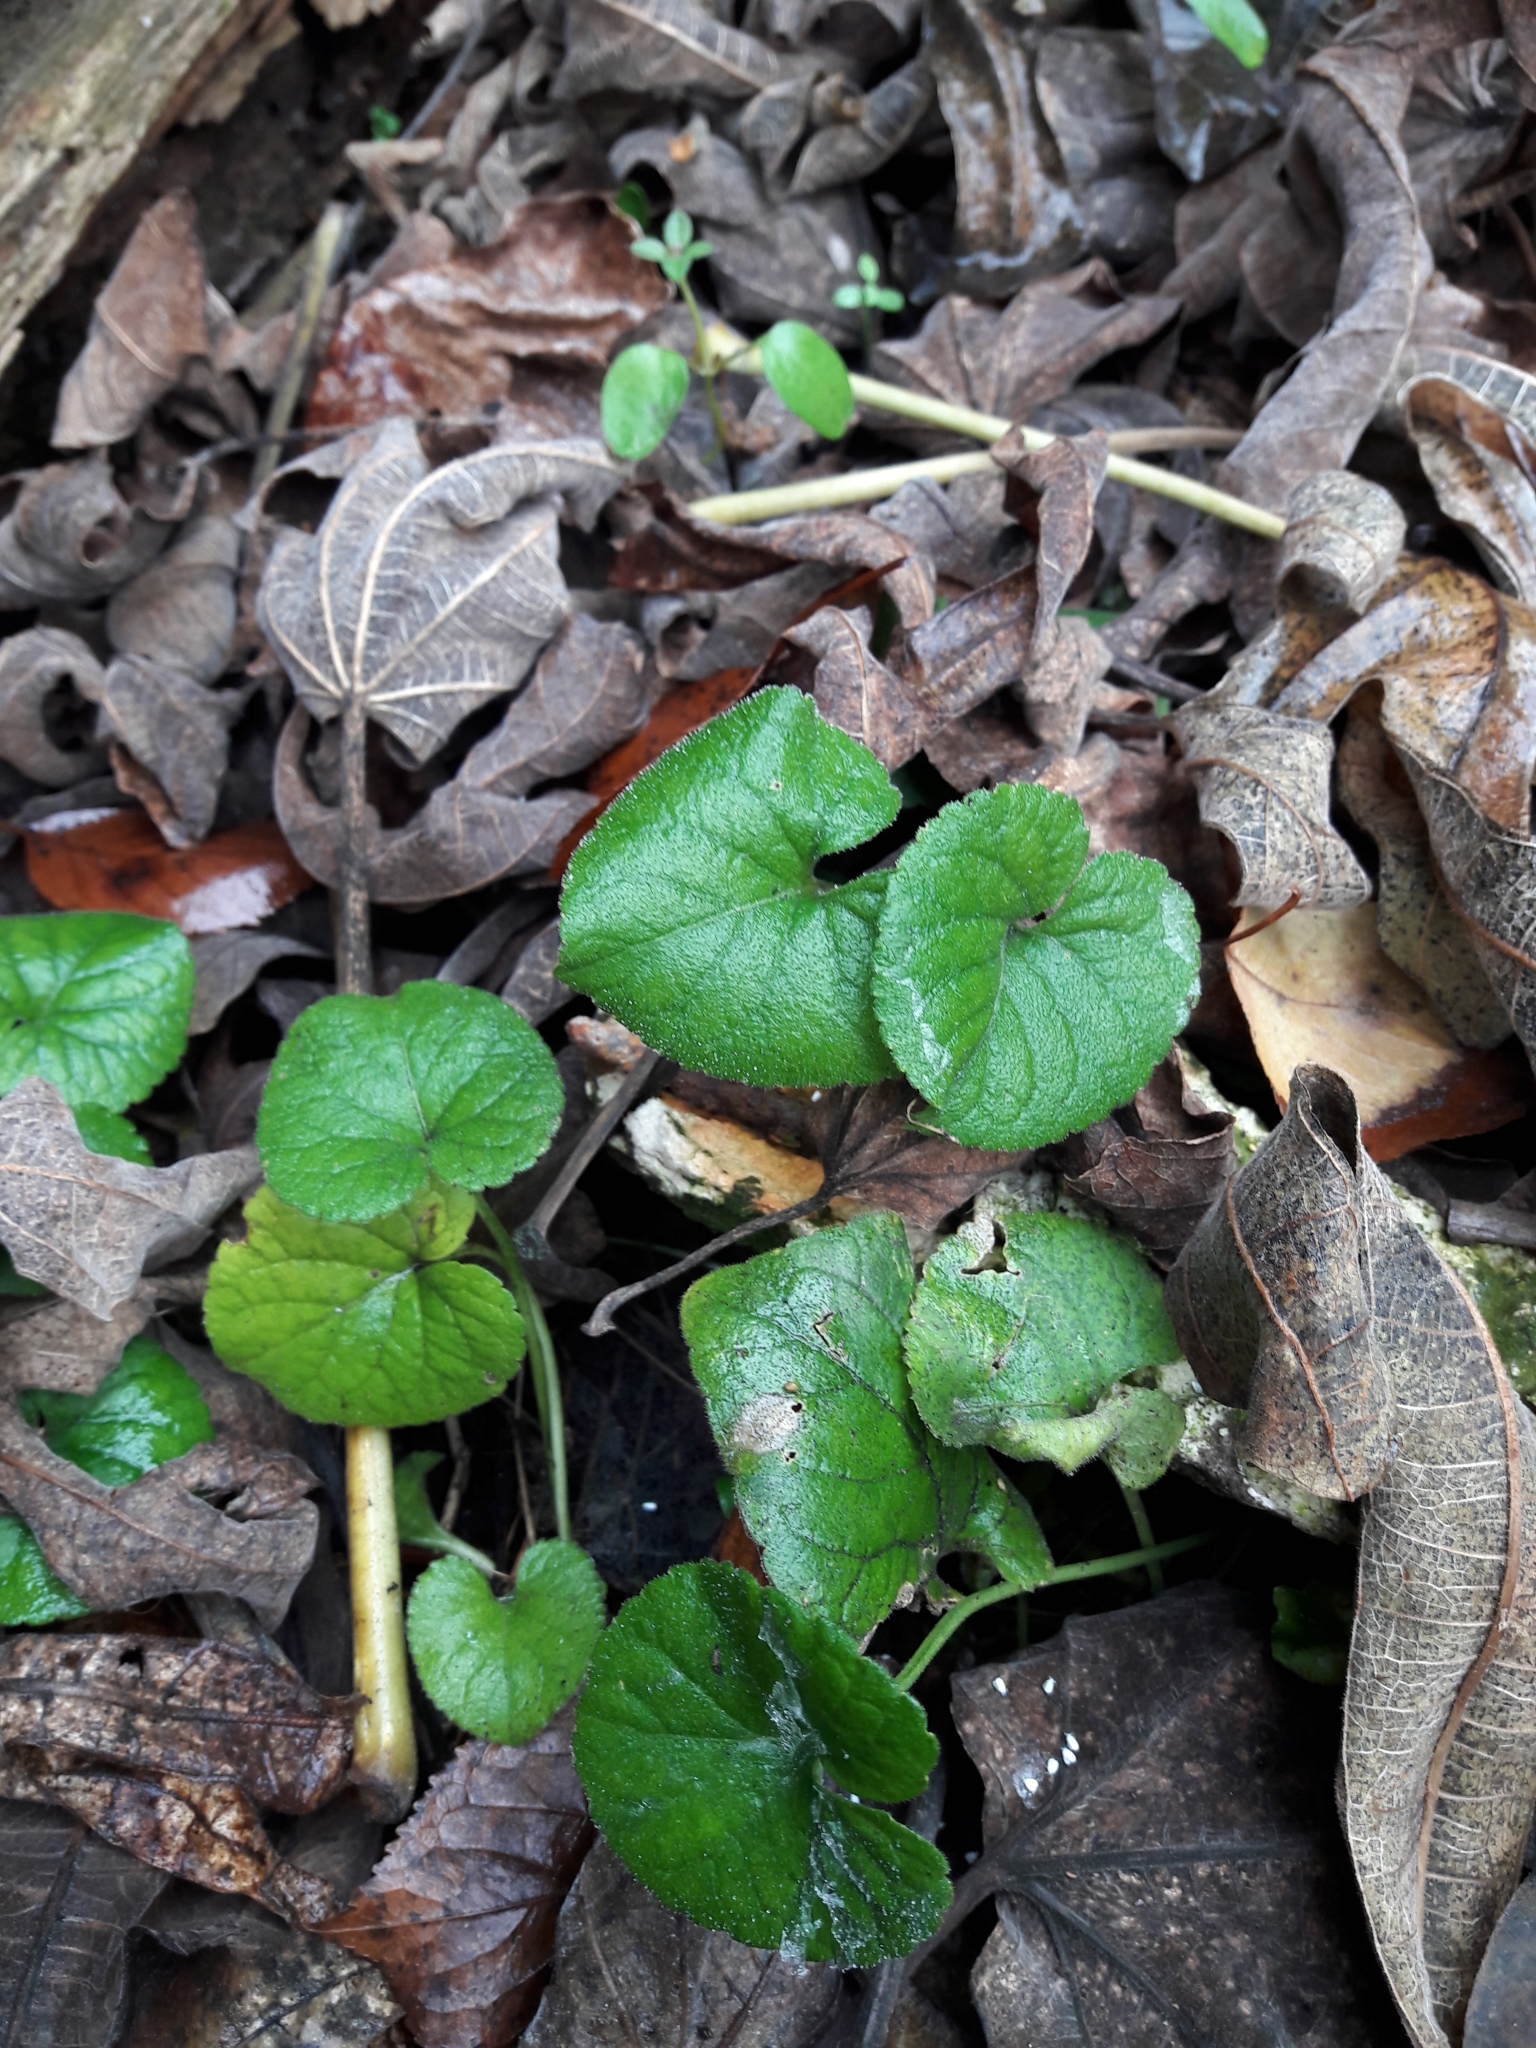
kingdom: Plantae
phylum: Tracheophyta
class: Magnoliopsida
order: Malpighiales
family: Violaceae
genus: Viola
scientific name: Viola odorata
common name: Sweet violet
